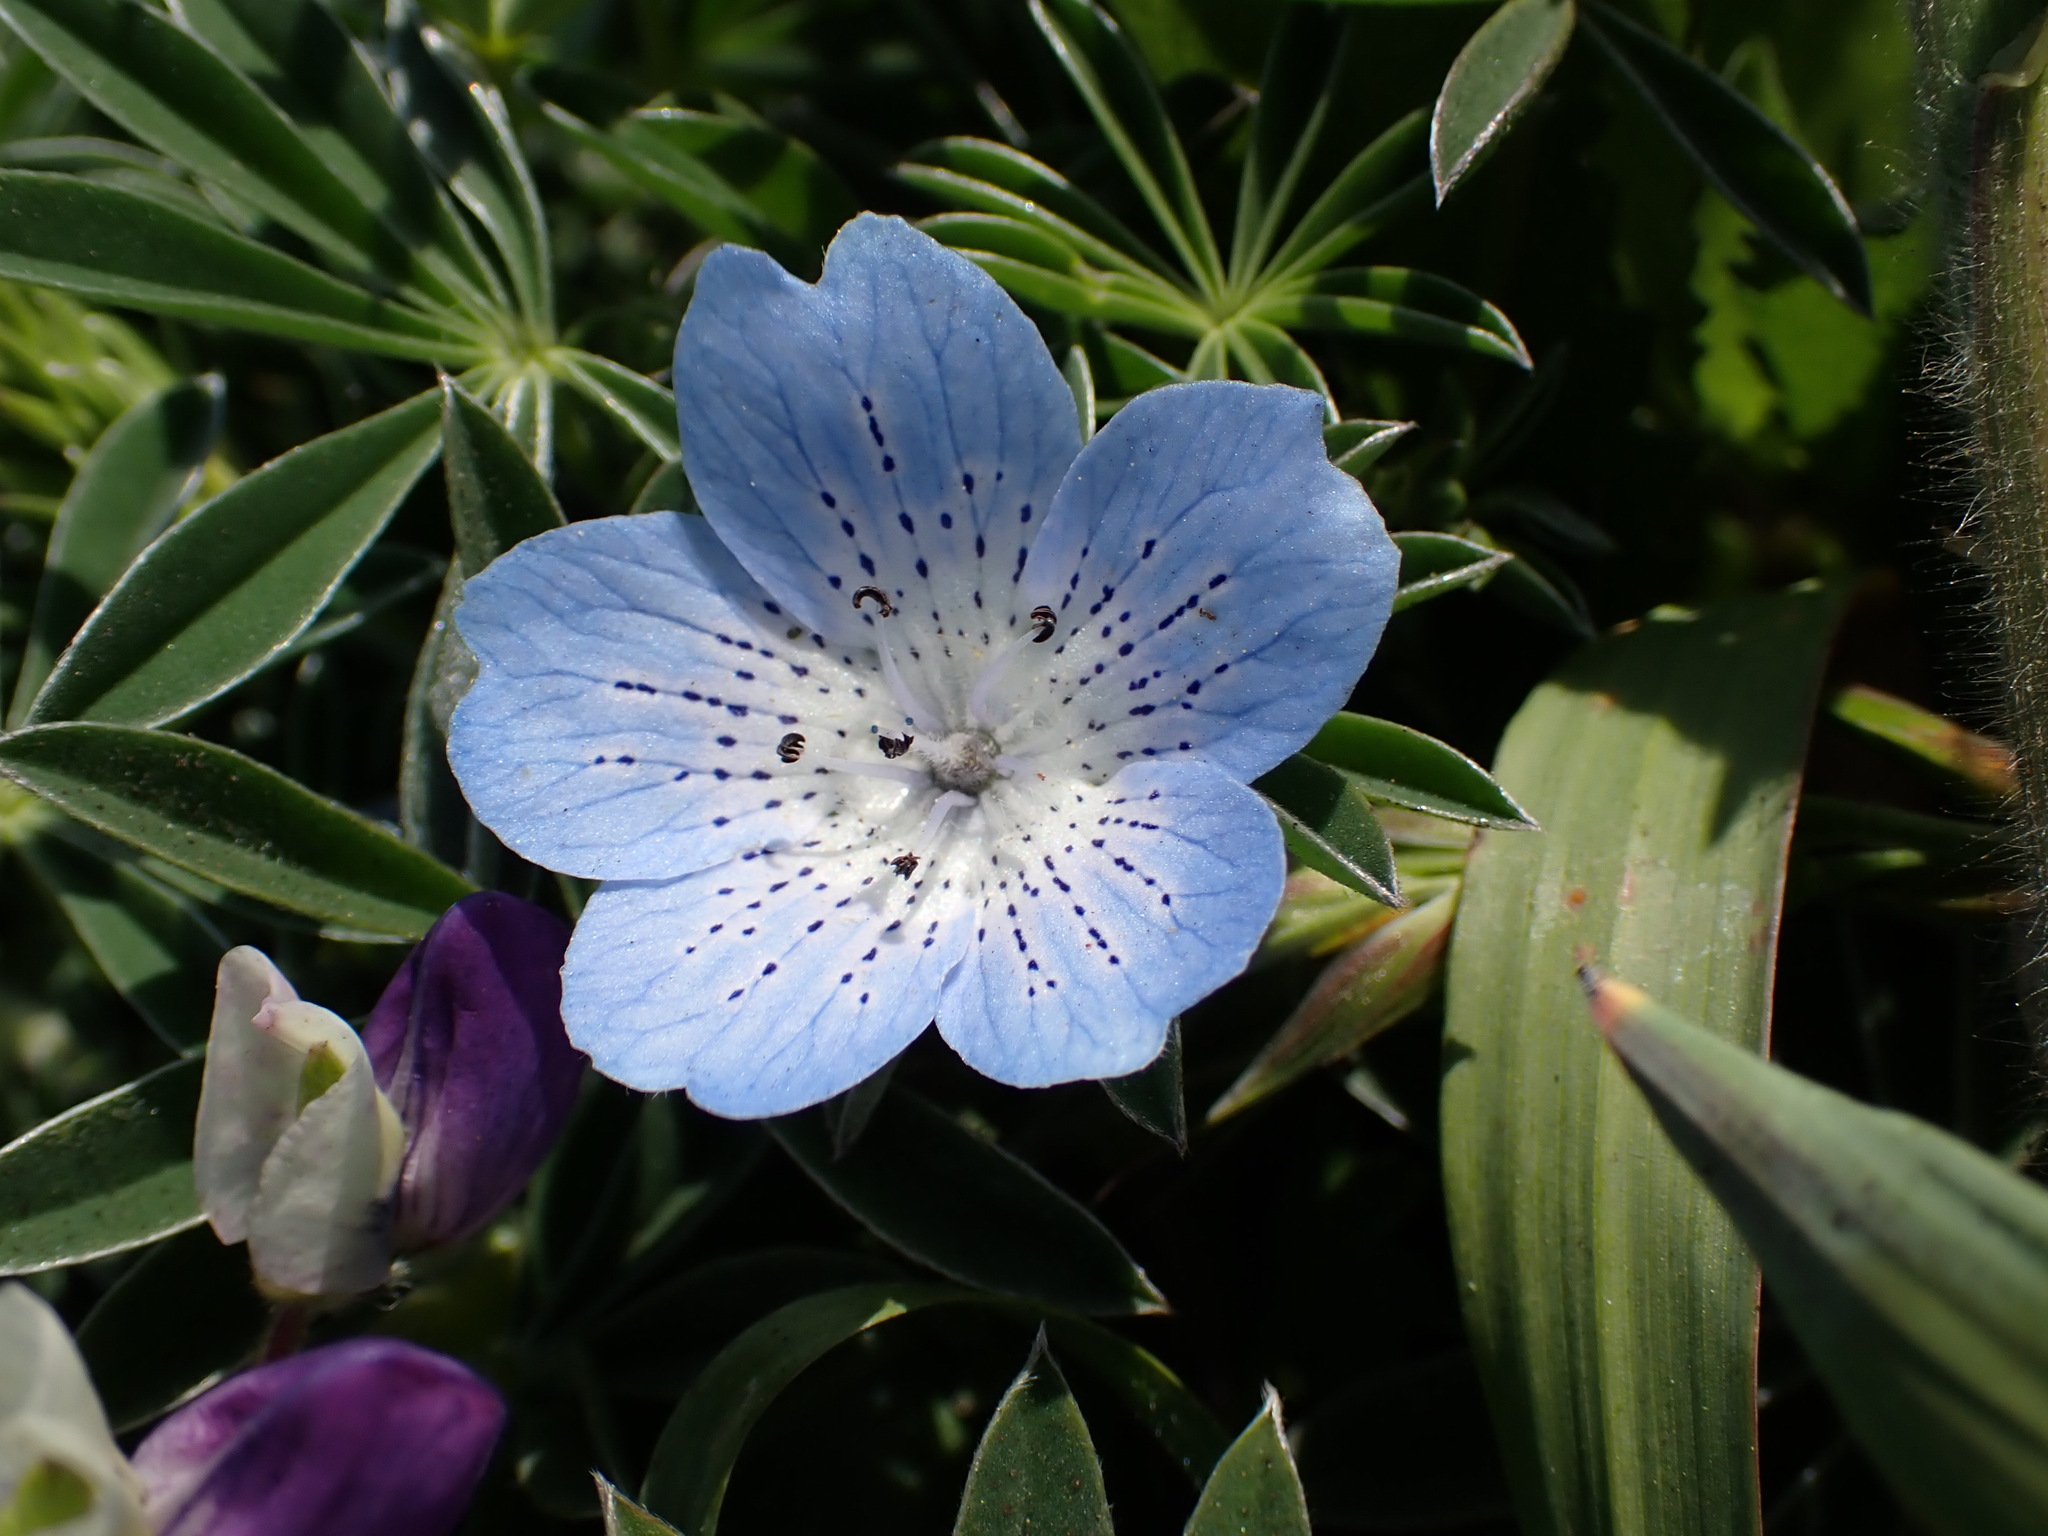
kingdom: Plantae
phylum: Tracheophyta
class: Magnoliopsida
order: Boraginales
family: Hydrophyllaceae
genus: Nemophila
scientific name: Nemophila menziesii
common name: Baby's-blue-eyes
